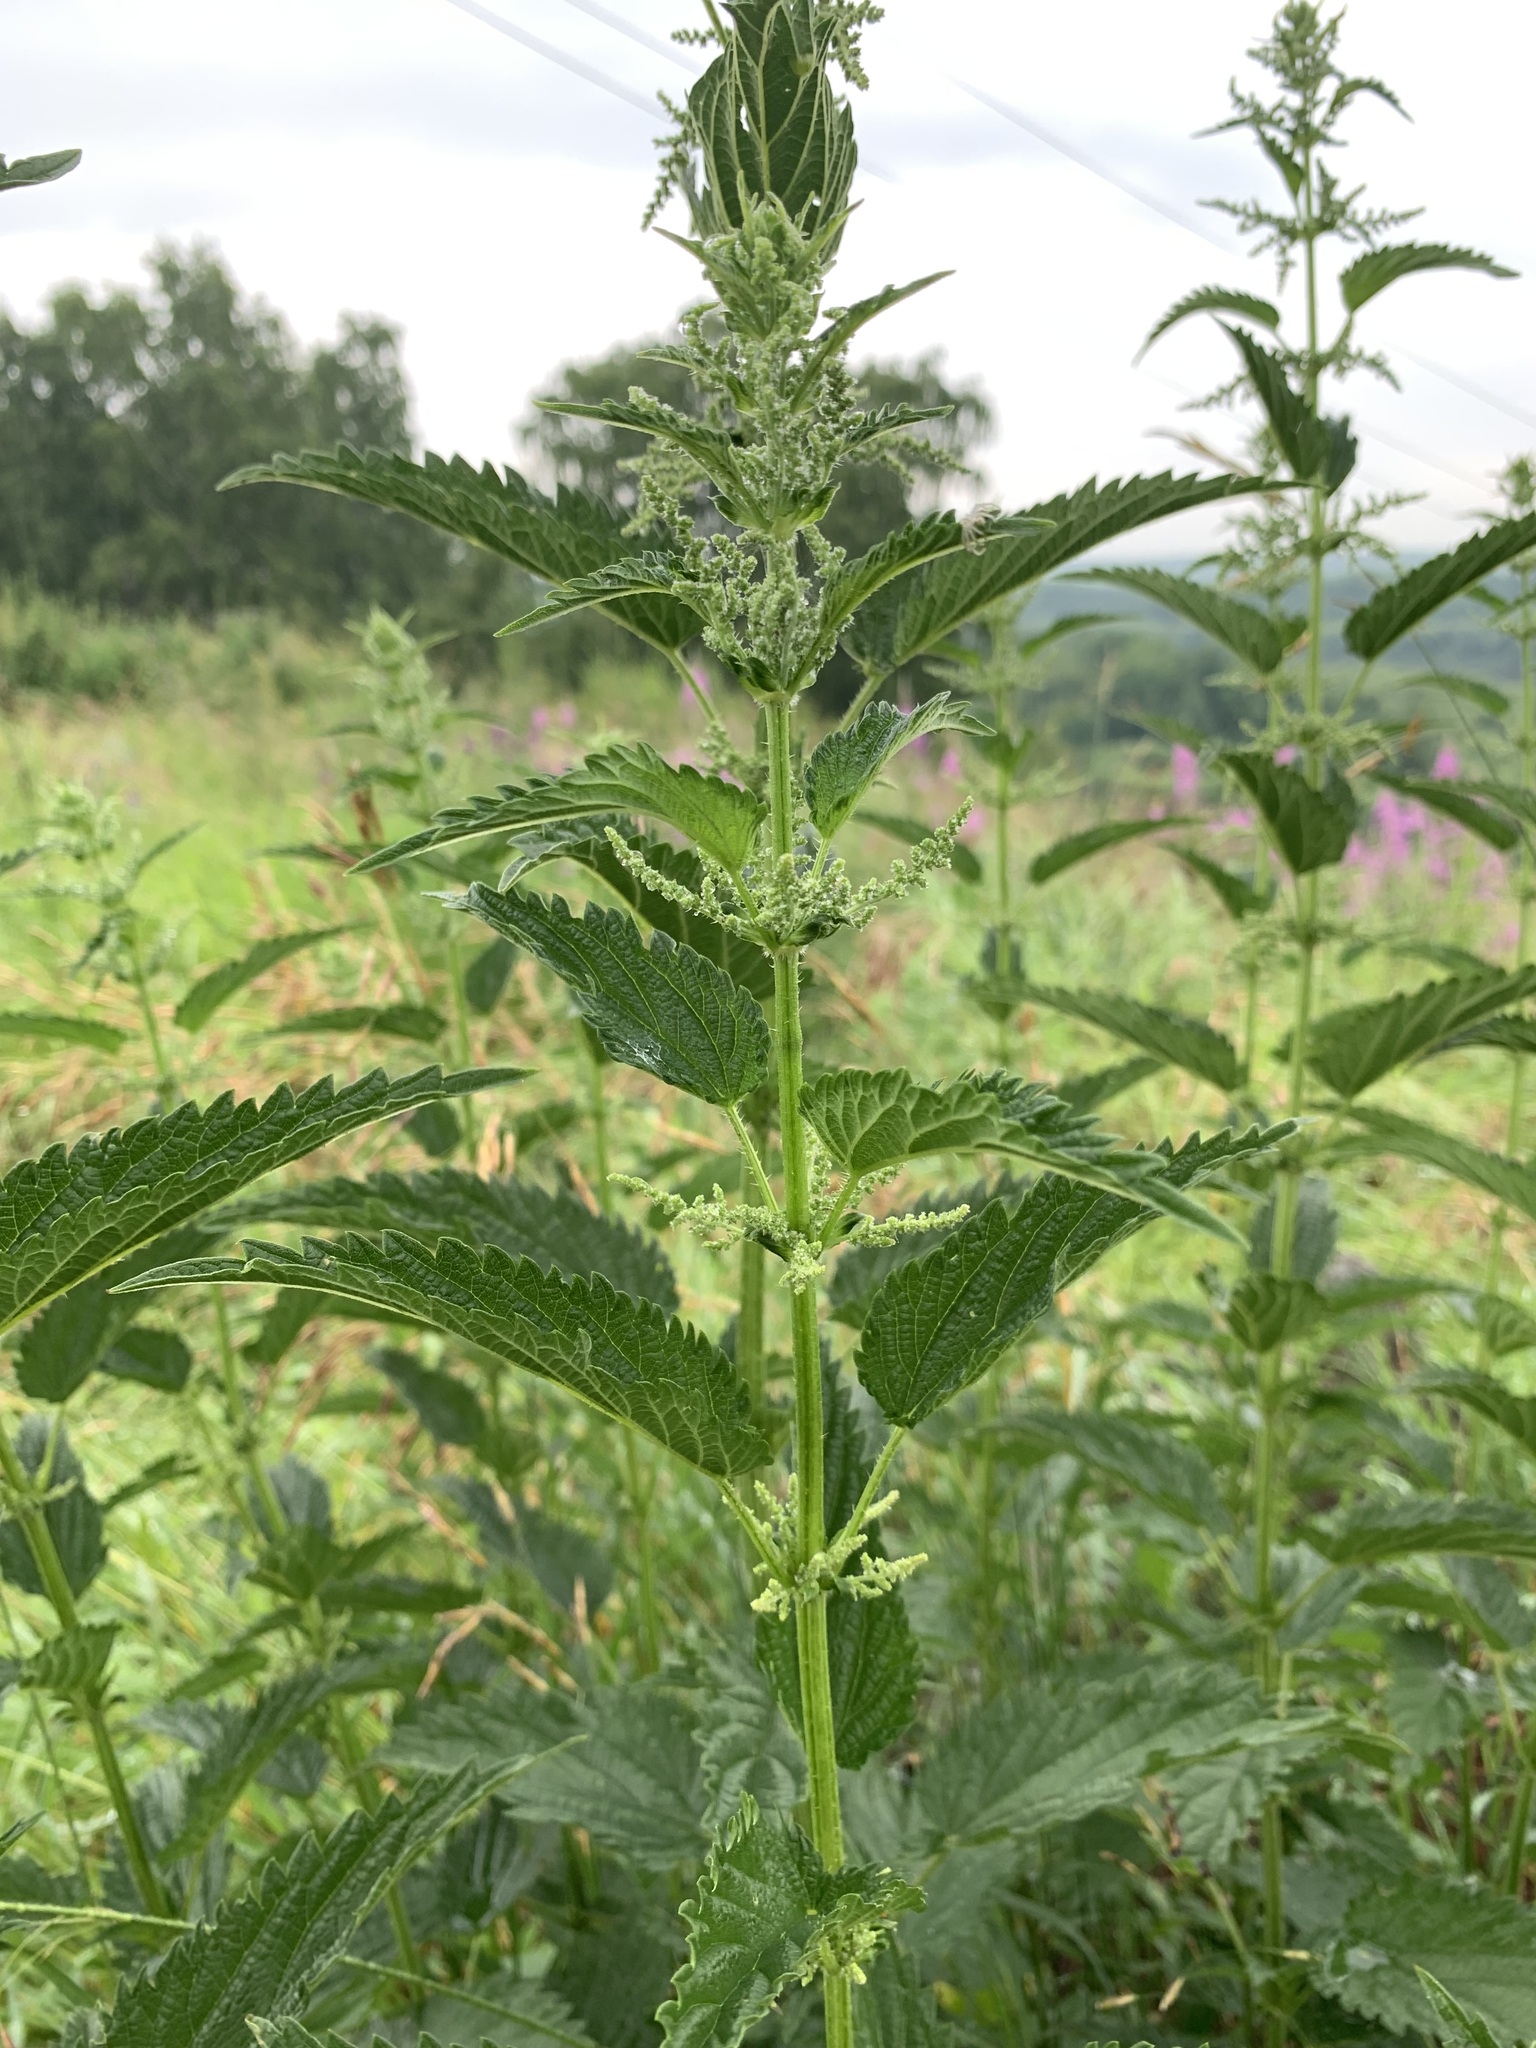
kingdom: Plantae
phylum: Tracheophyta
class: Magnoliopsida
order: Rosales
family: Urticaceae
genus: Urtica
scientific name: Urtica dioica
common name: Common nettle
